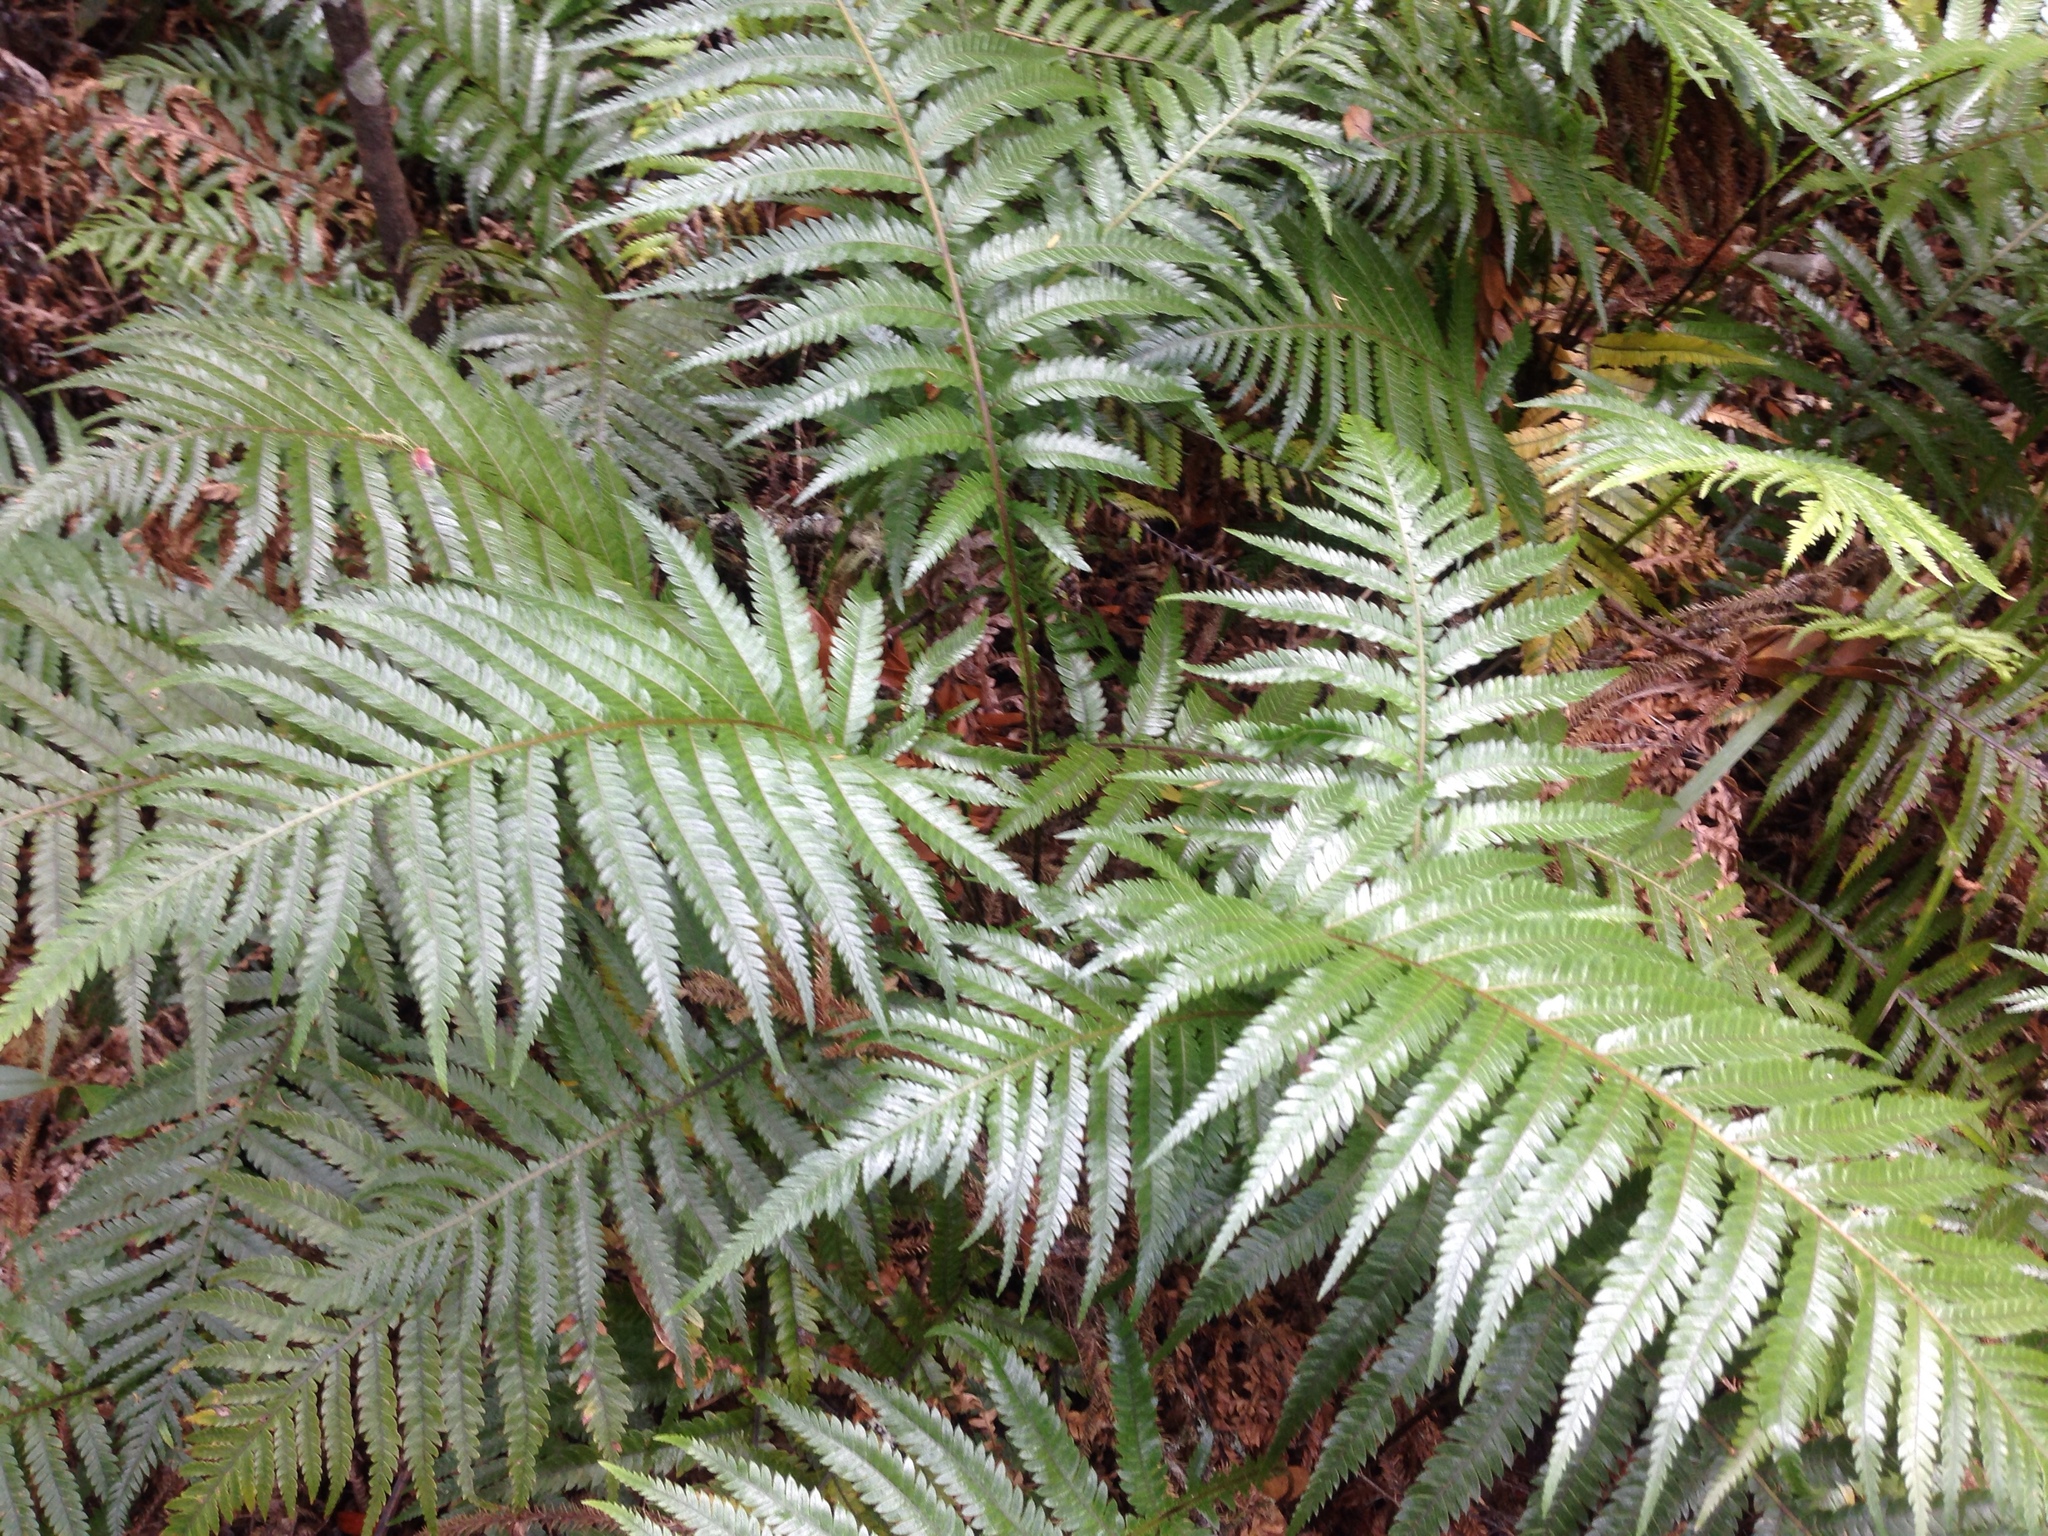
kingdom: Plantae
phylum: Tracheophyta
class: Polypodiopsida
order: Polypodiales
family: Blechnaceae
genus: Diploblechnum
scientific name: Diploblechnum fraseri
